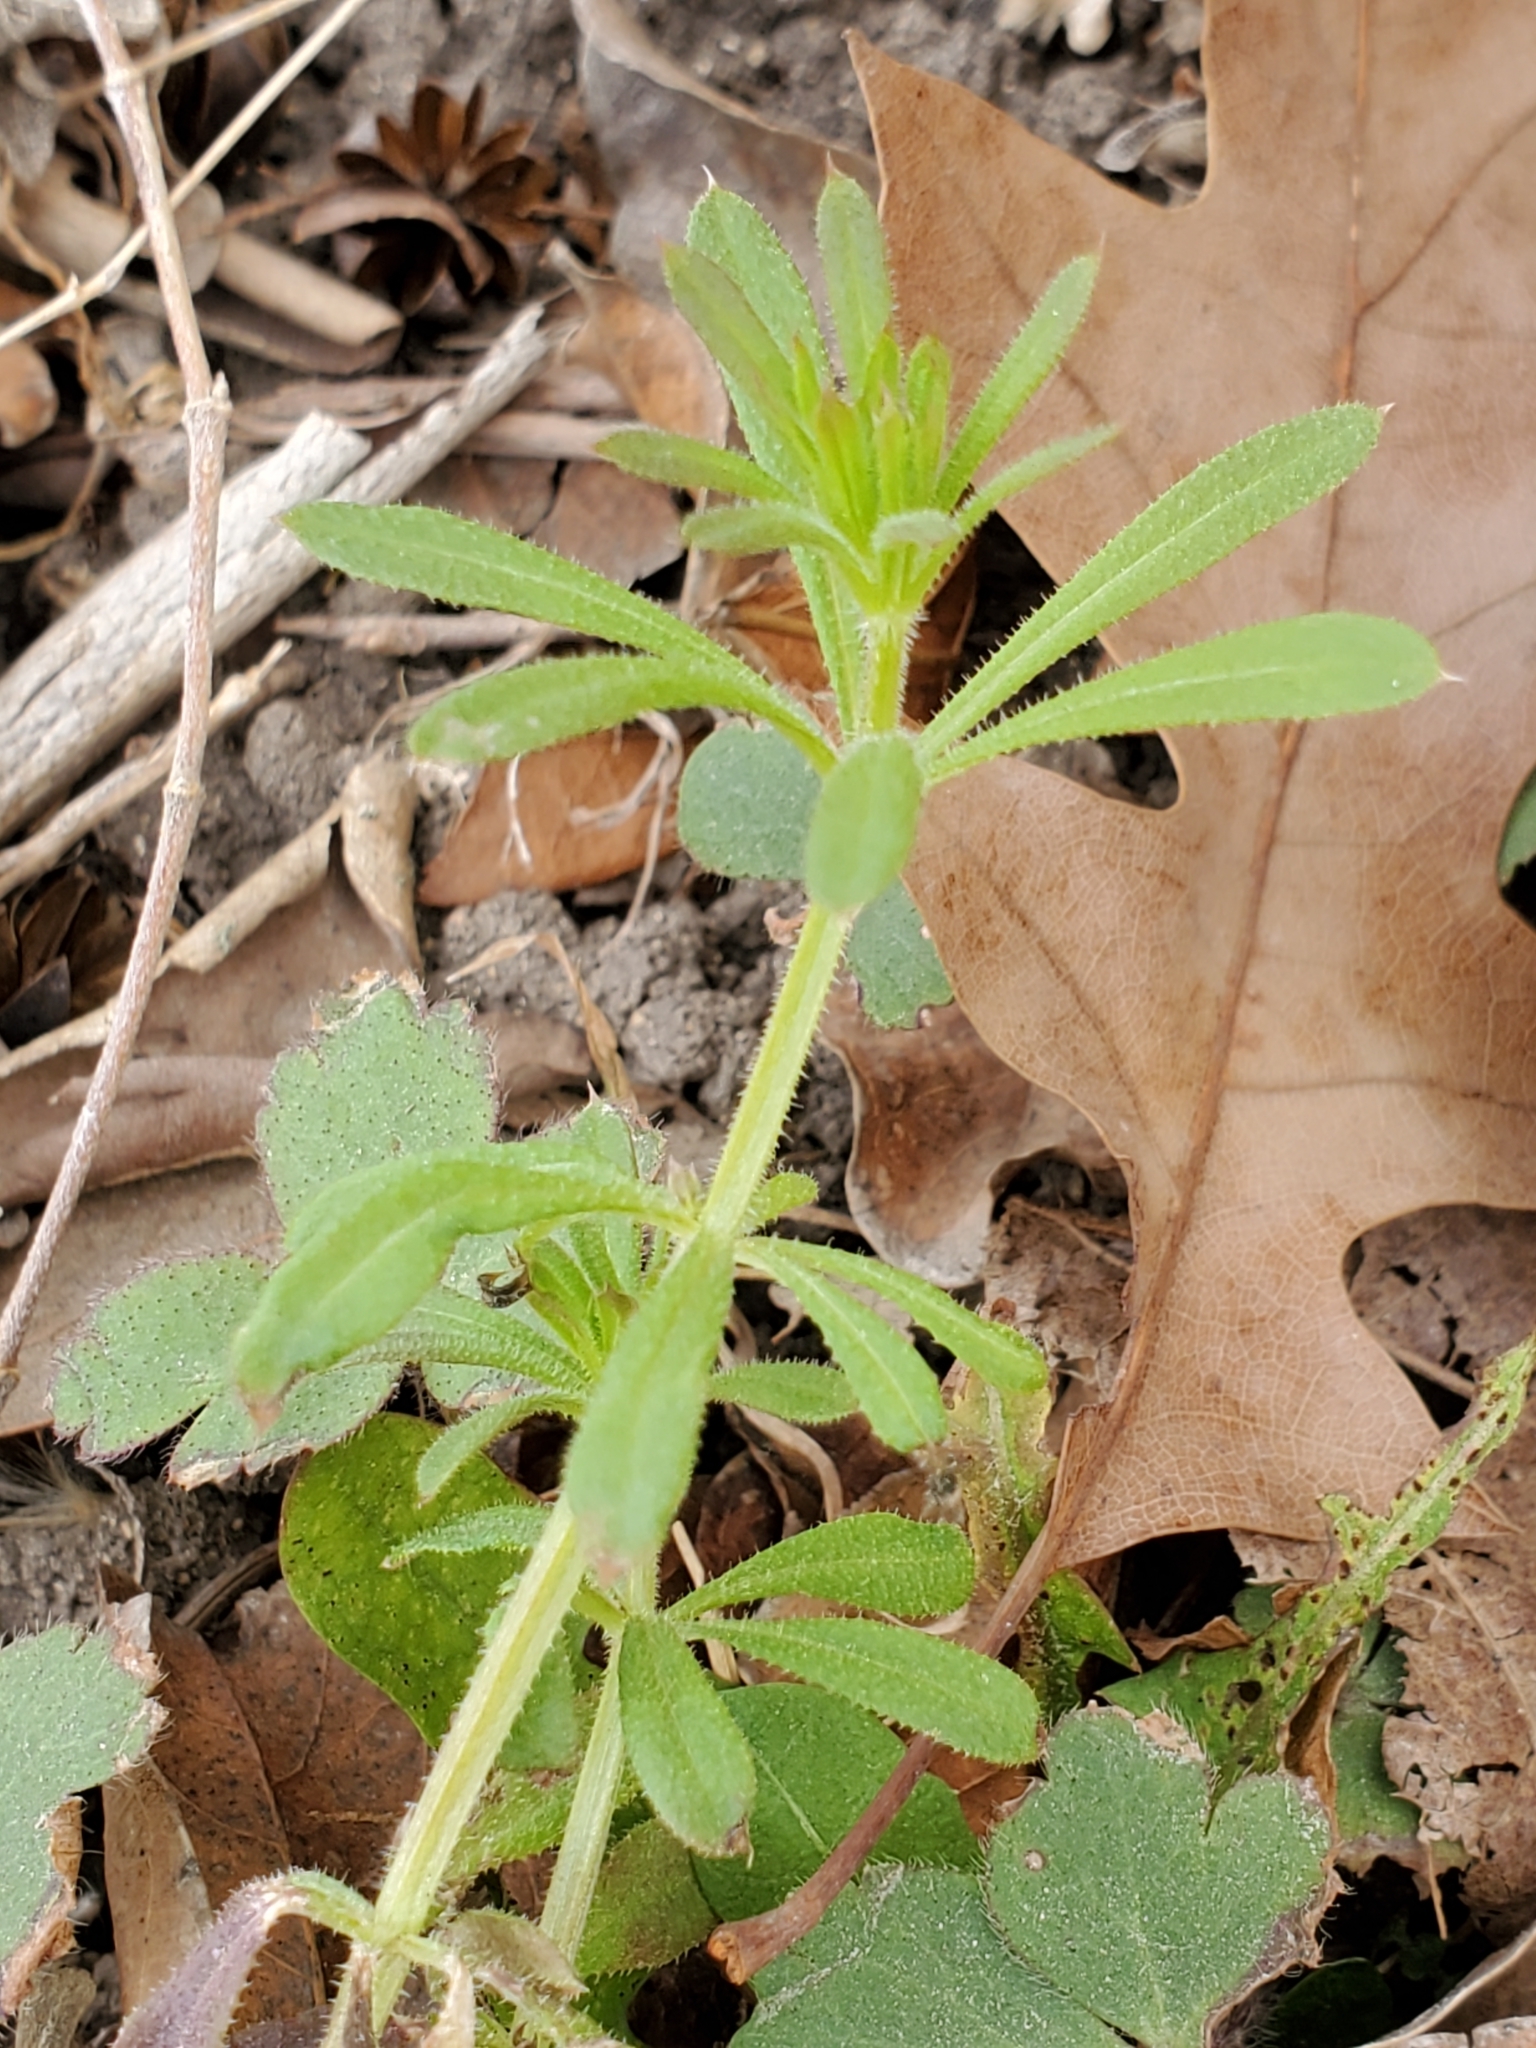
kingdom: Plantae
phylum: Tracheophyta
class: Magnoliopsida
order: Gentianales
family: Rubiaceae
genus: Galium
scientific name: Galium aparine
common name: Cleavers
